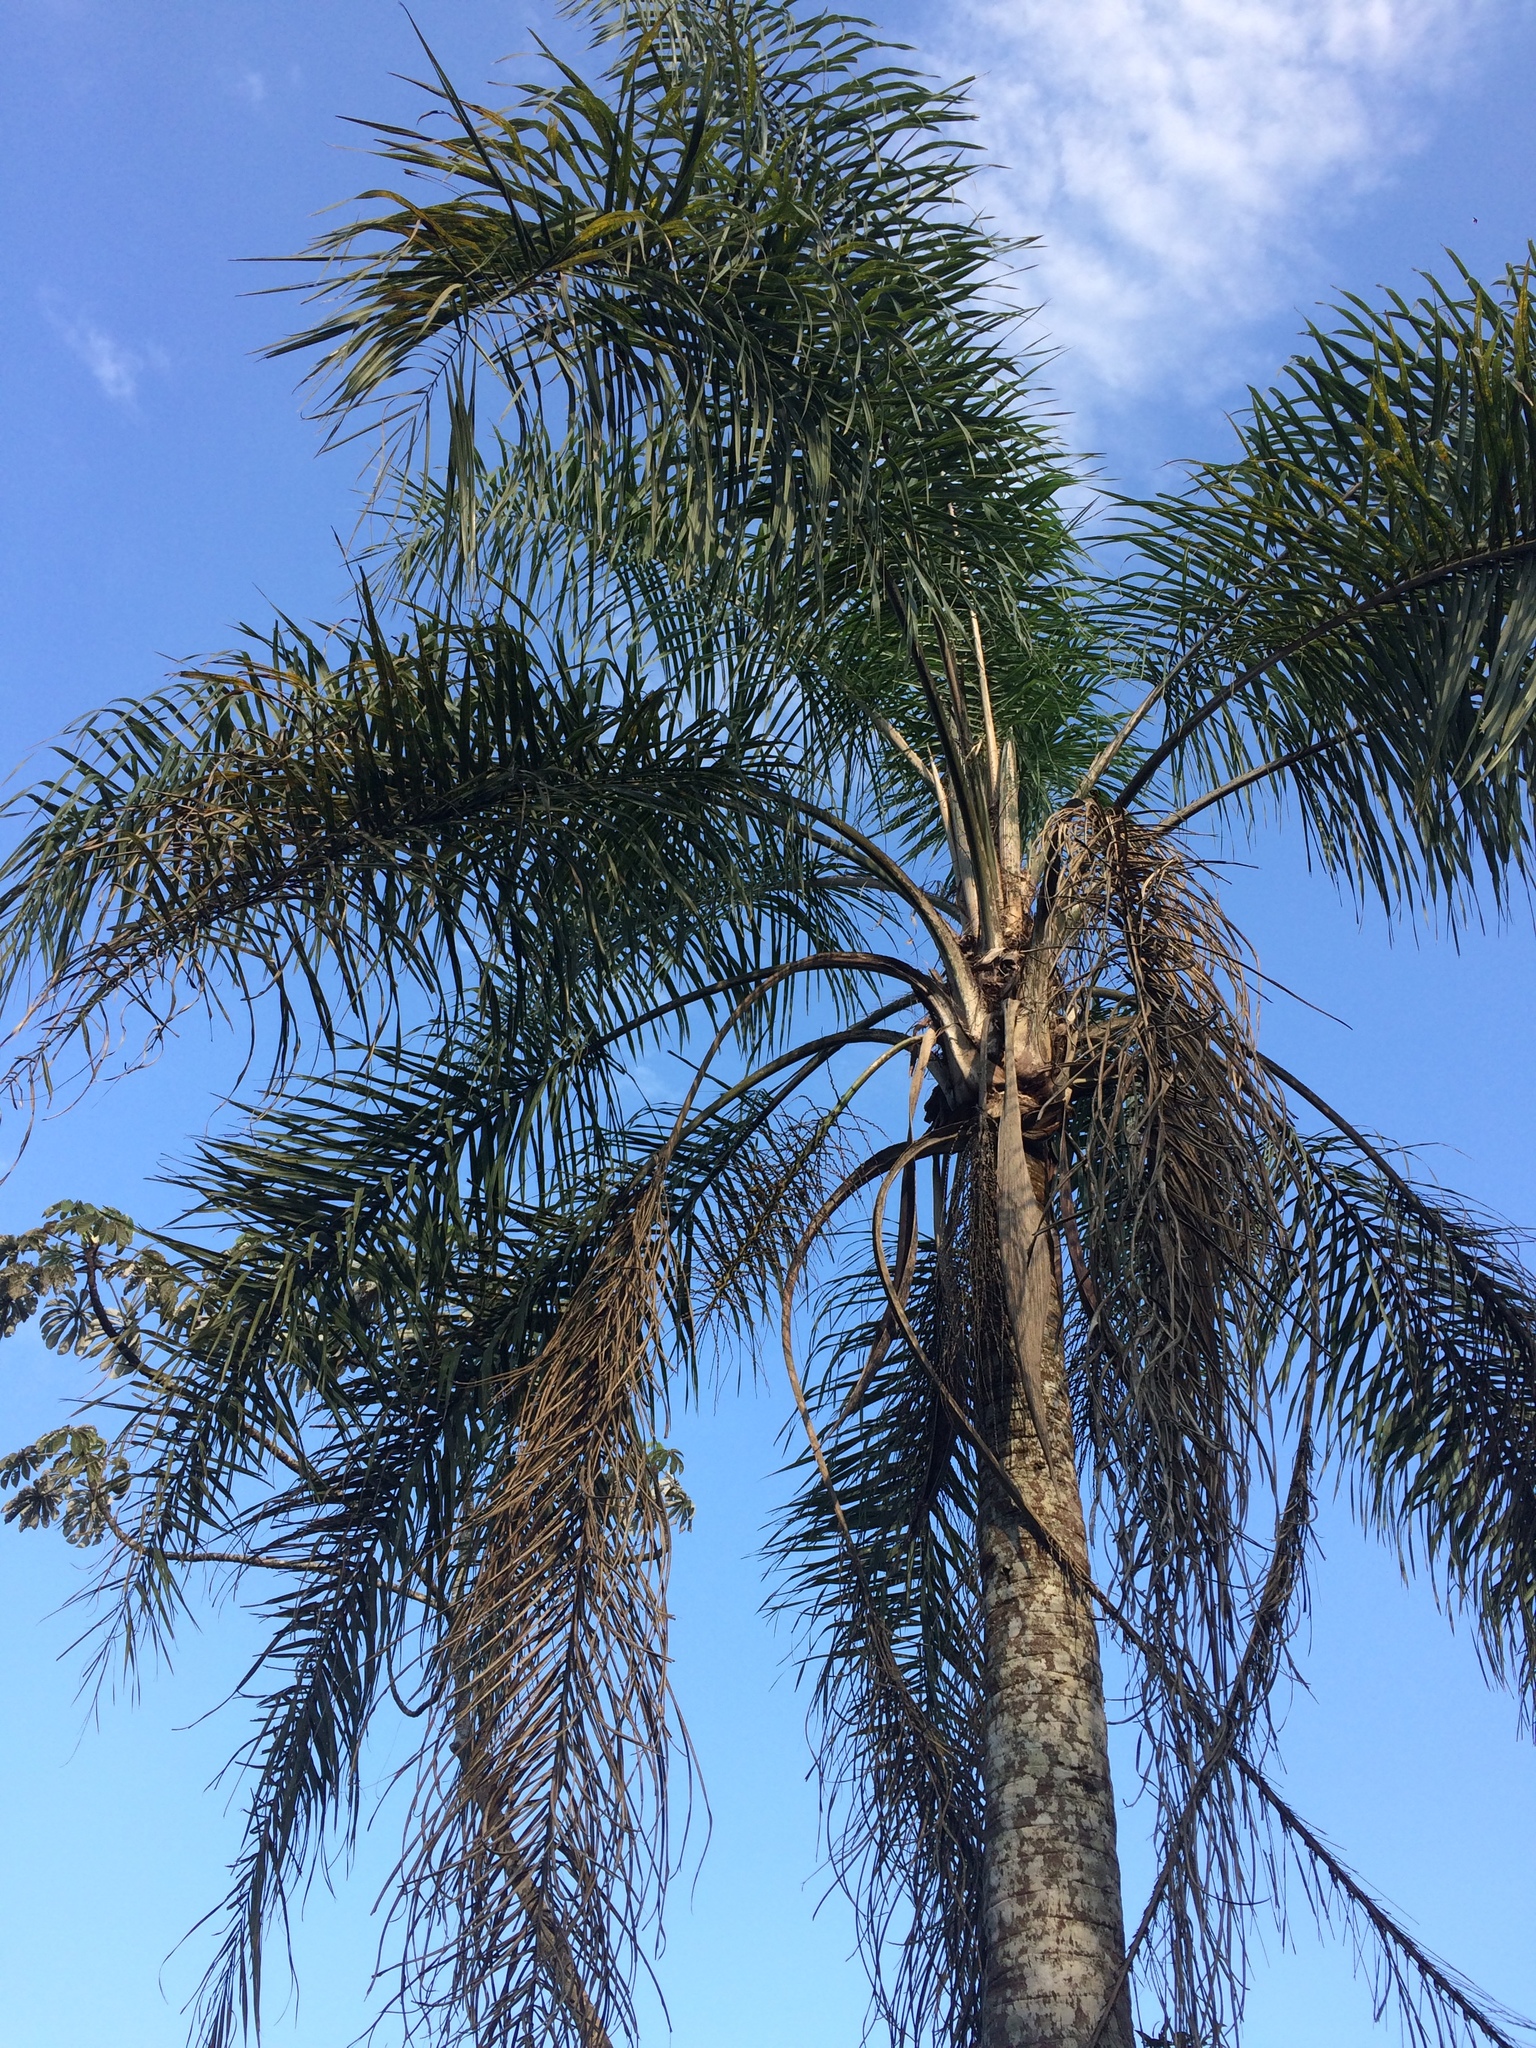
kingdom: Plantae
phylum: Tracheophyta
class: Liliopsida
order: Arecales
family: Arecaceae
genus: Syagrus
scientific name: Syagrus romanzoffiana
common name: Queen palm
